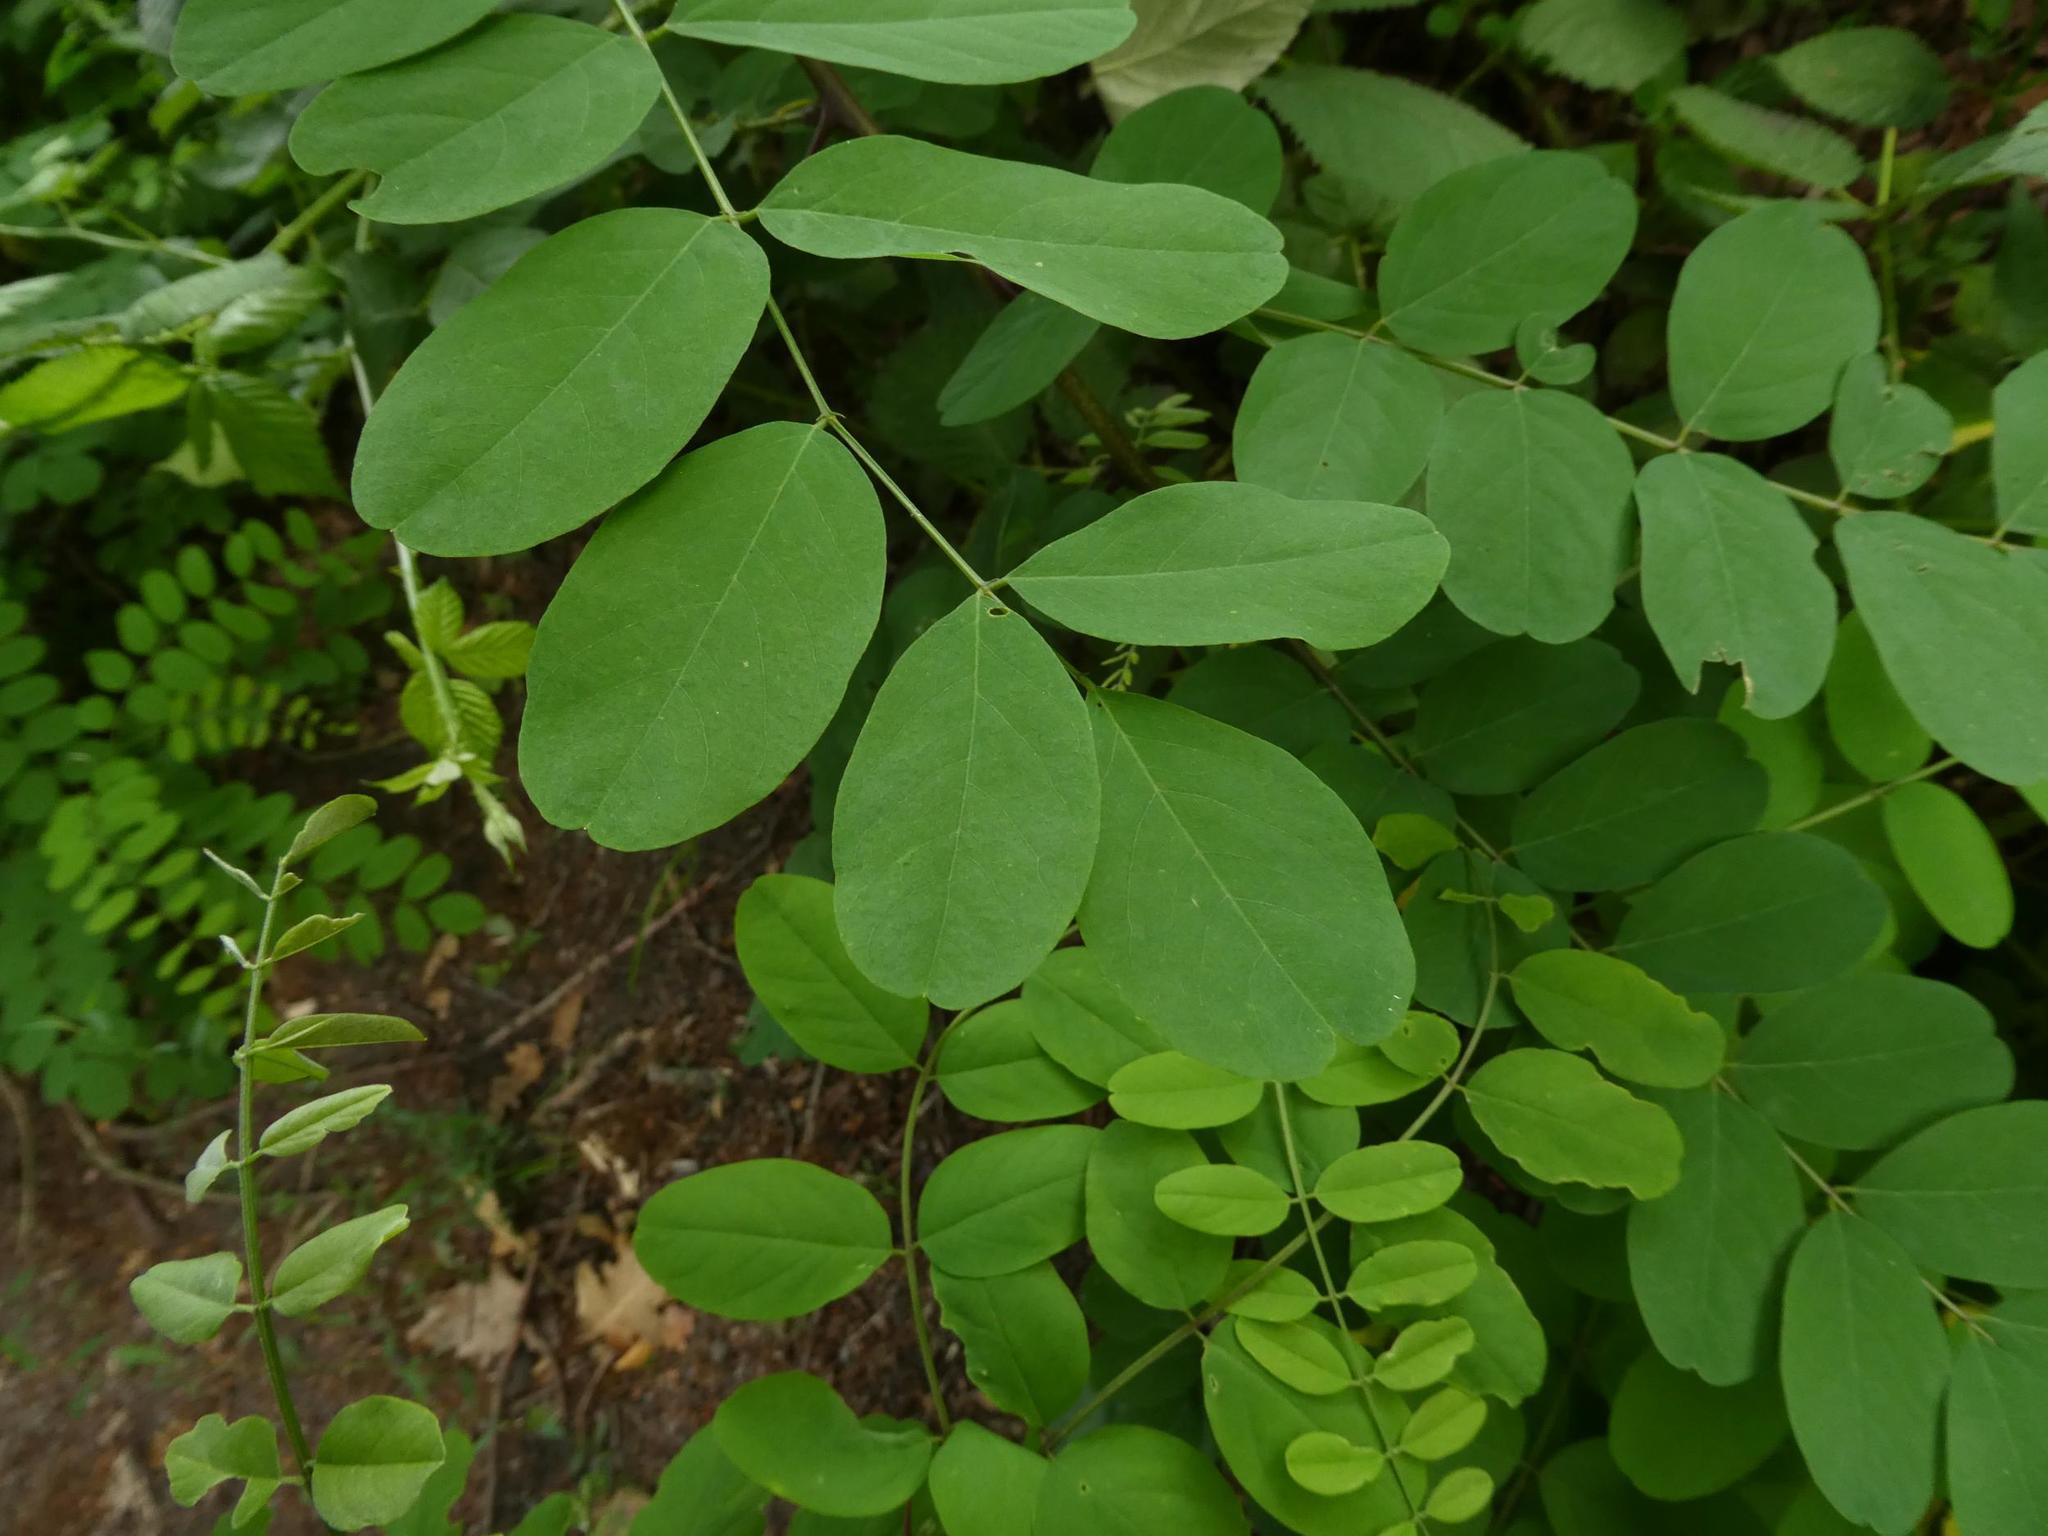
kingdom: Plantae
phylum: Tracheophyta
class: Magnoliopsida
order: Fabales
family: Fabaceae
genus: Robinia
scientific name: Robinia pseudoacacia
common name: Black locust
